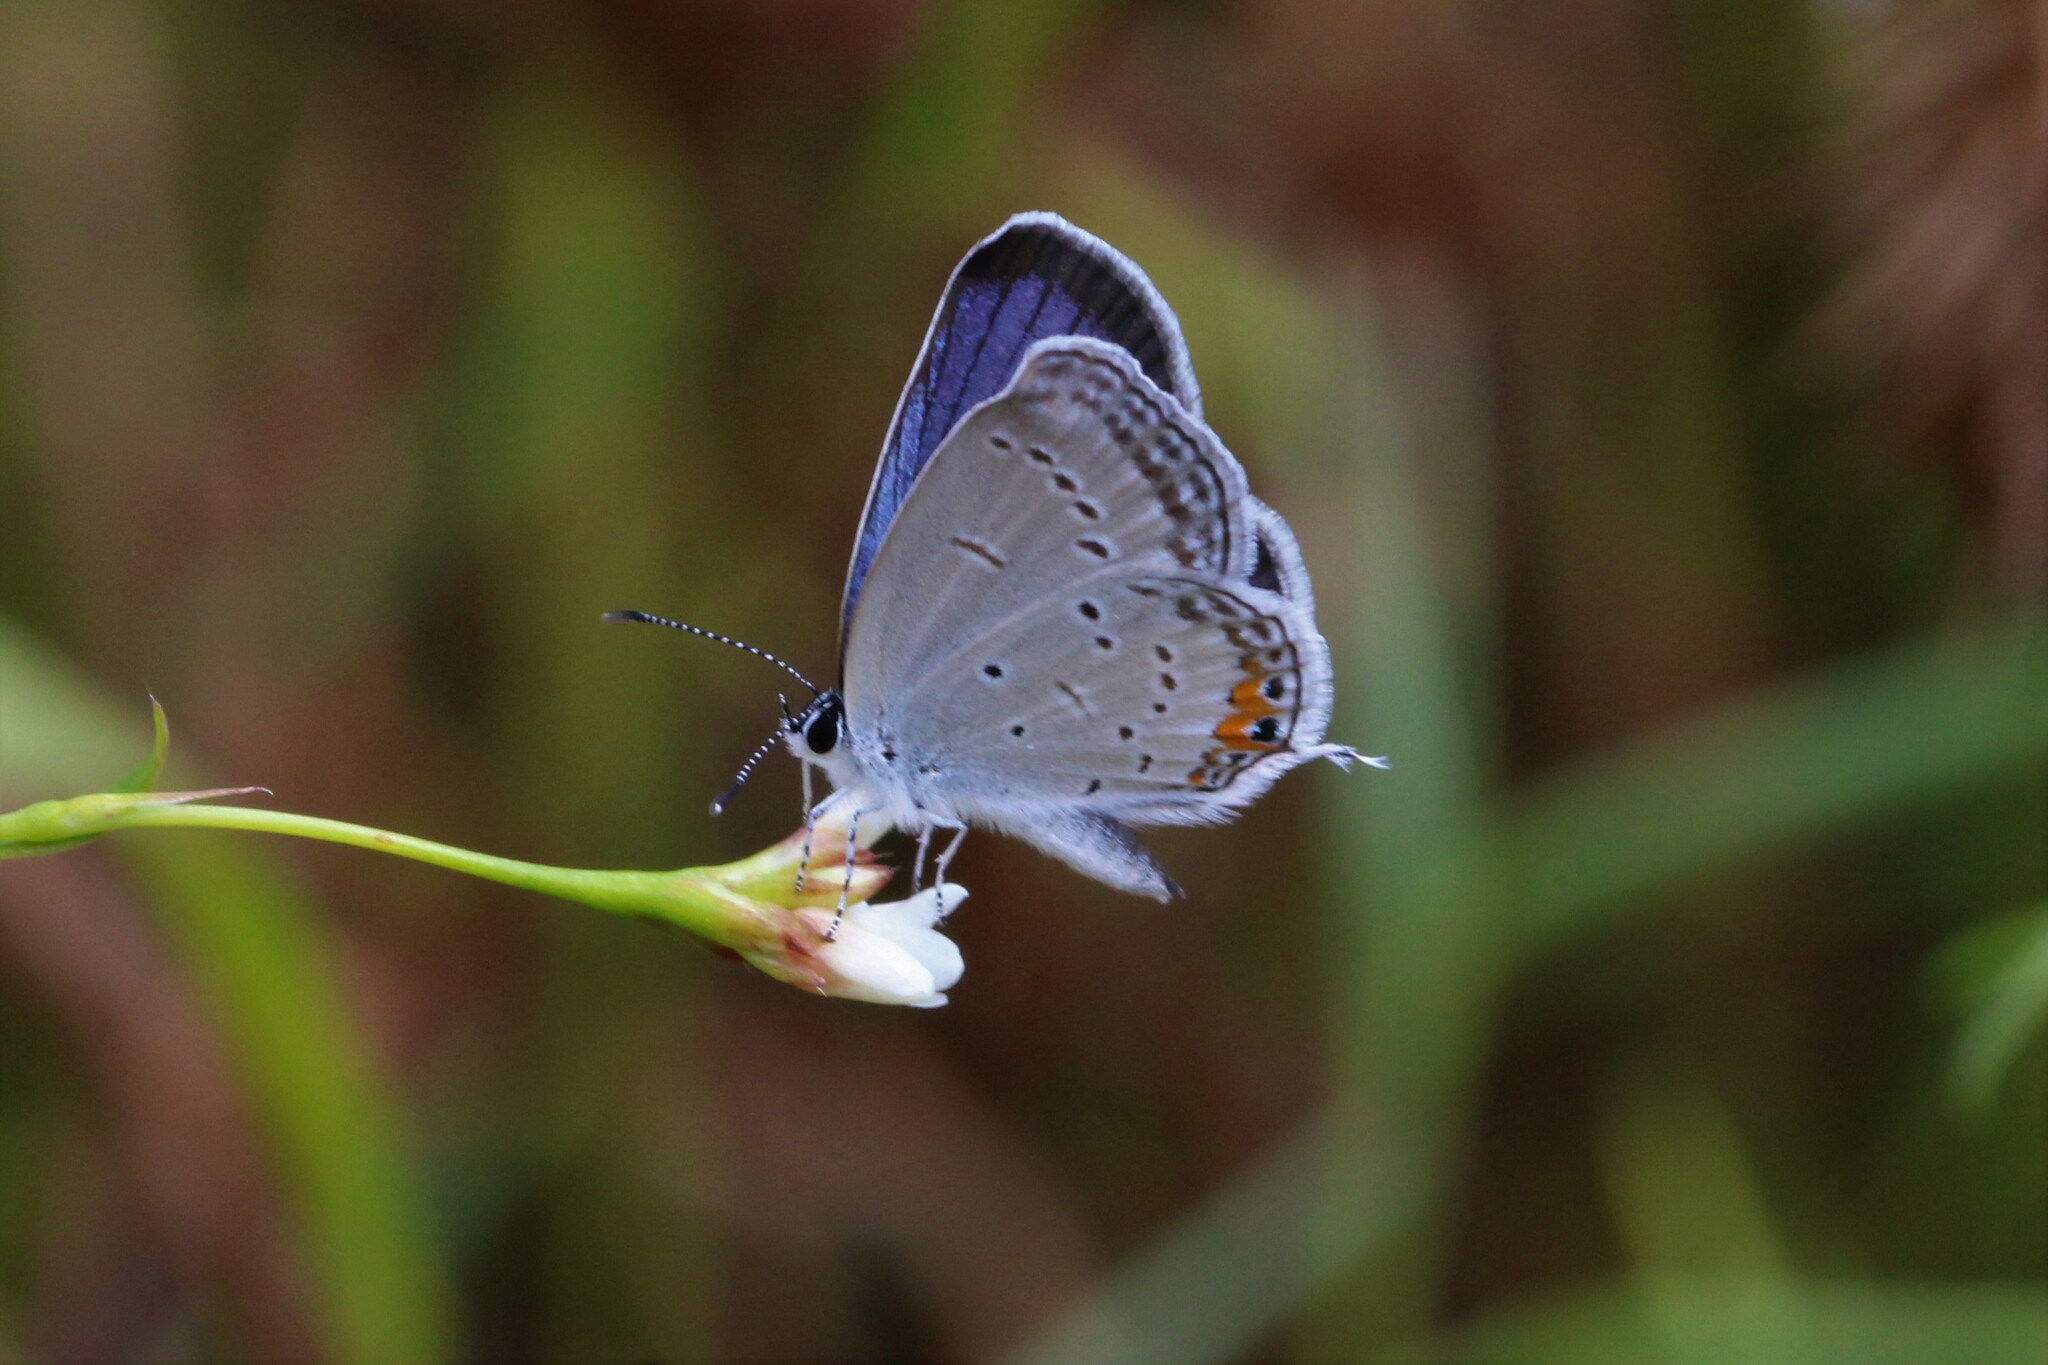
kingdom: Animalia
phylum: Arthropoda
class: Insecta
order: Lepidoptera
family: Lycaenidae
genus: Elkalyce
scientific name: Elkalyce comyntas
